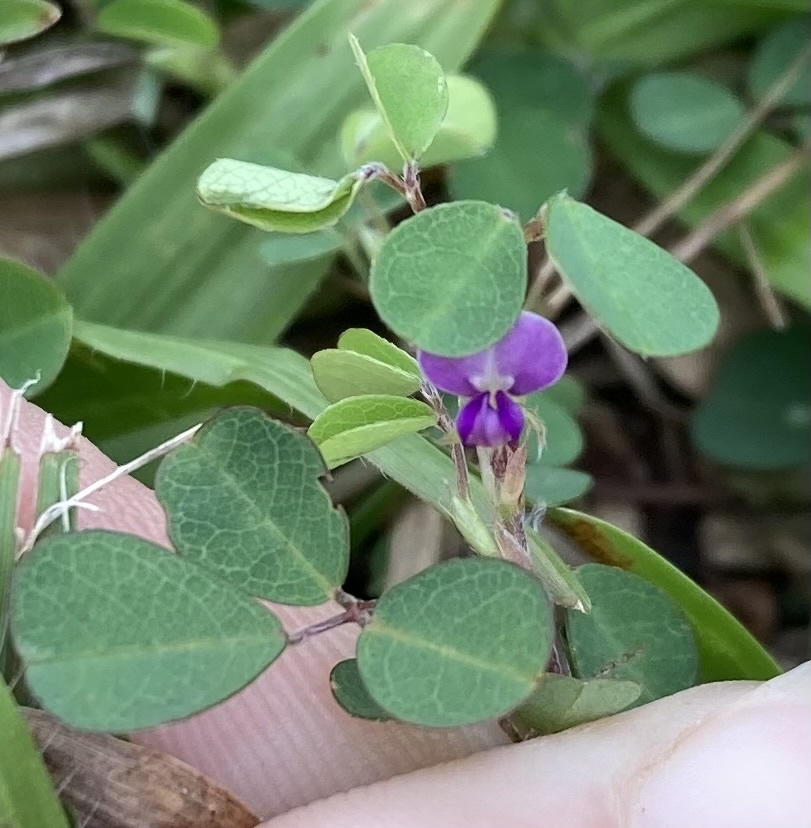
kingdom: Plantae
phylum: Tracheophyta
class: Magnoliopsida
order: Fabales
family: Fabaceae
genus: Grona
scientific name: Grona triflora
